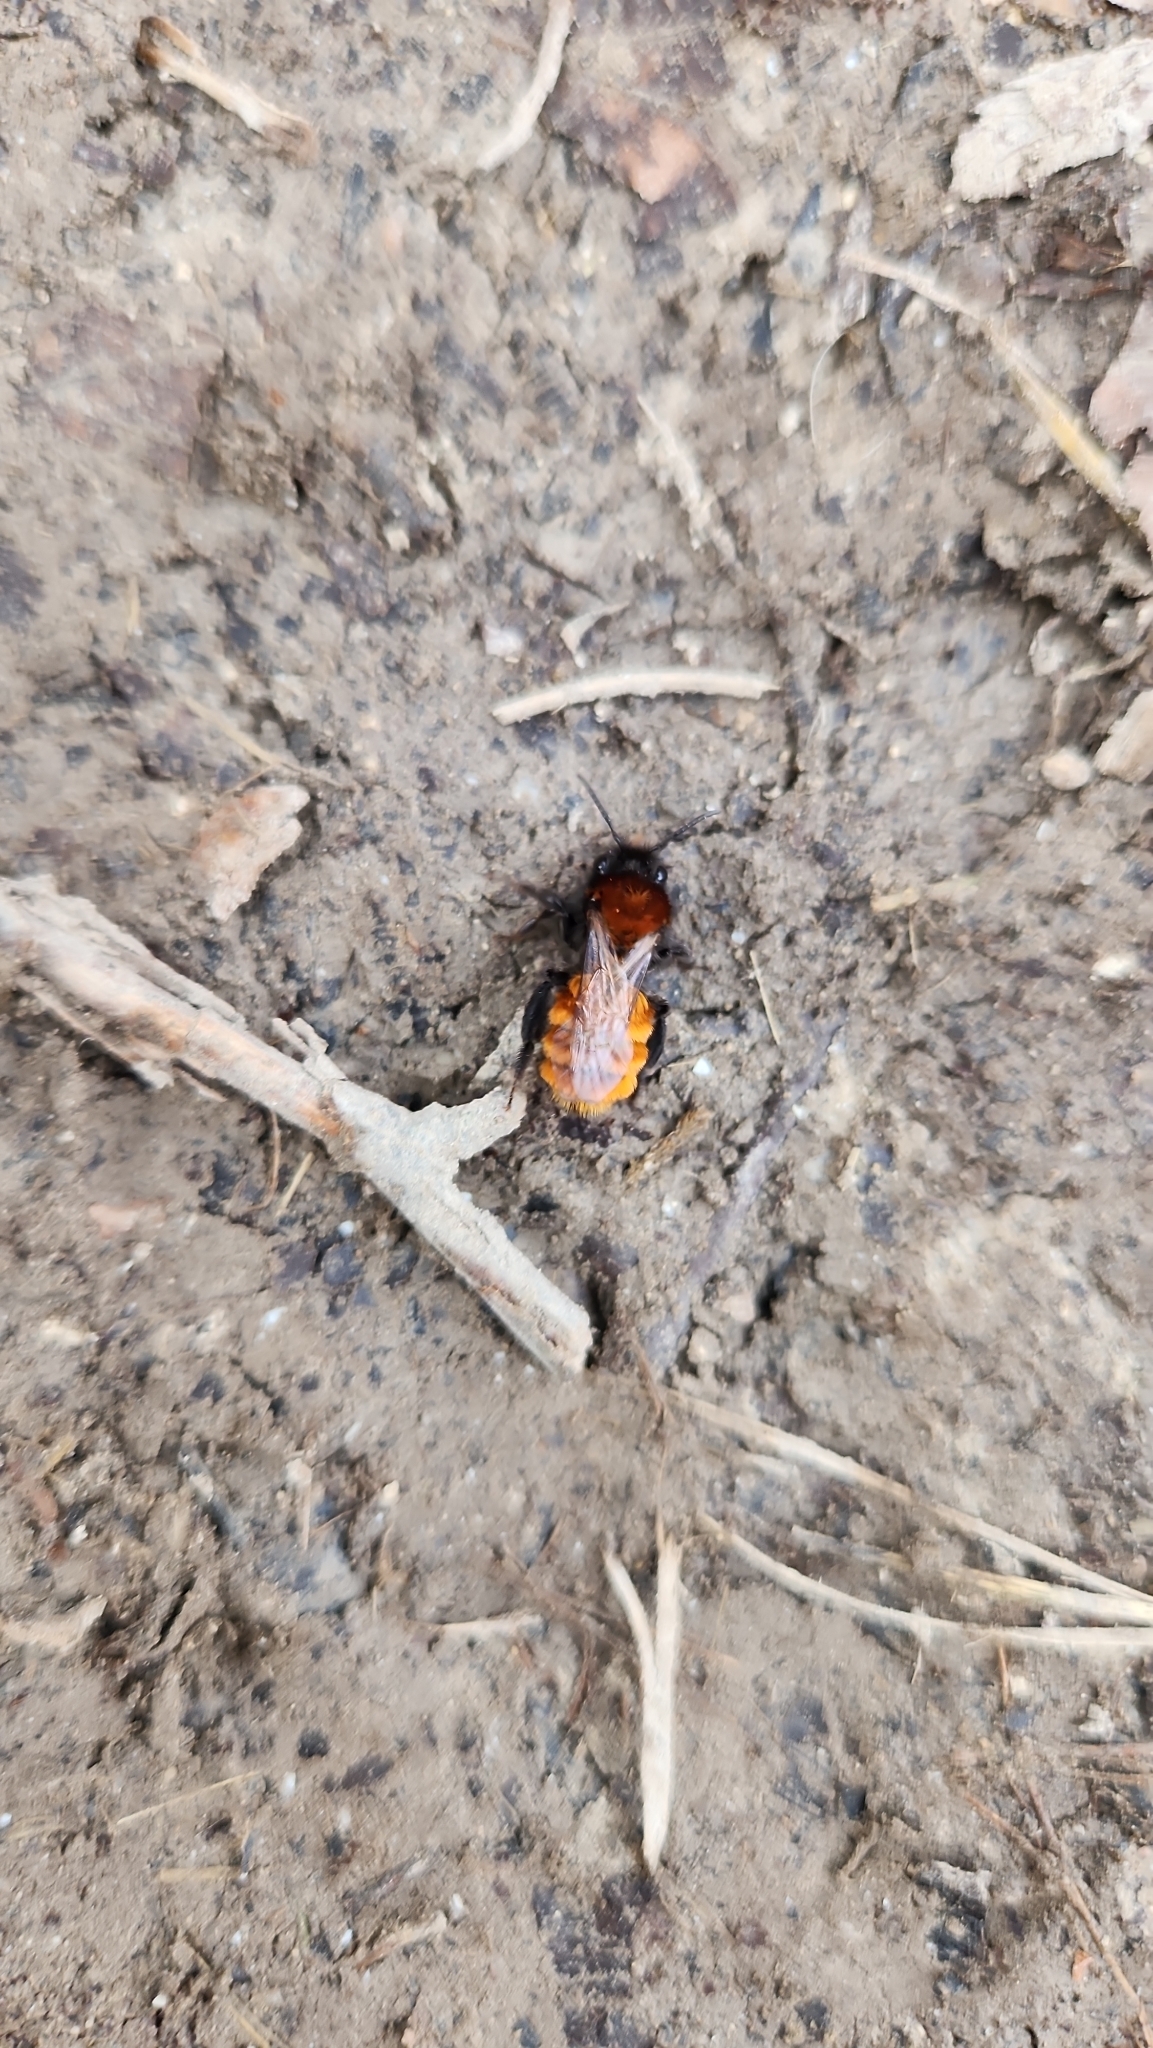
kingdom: Animalia
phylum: Arthropoda
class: Insecta
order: Hymenoptera
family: Andrenidae
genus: Andrena
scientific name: Andrena fulva
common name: Tawny mining bee
